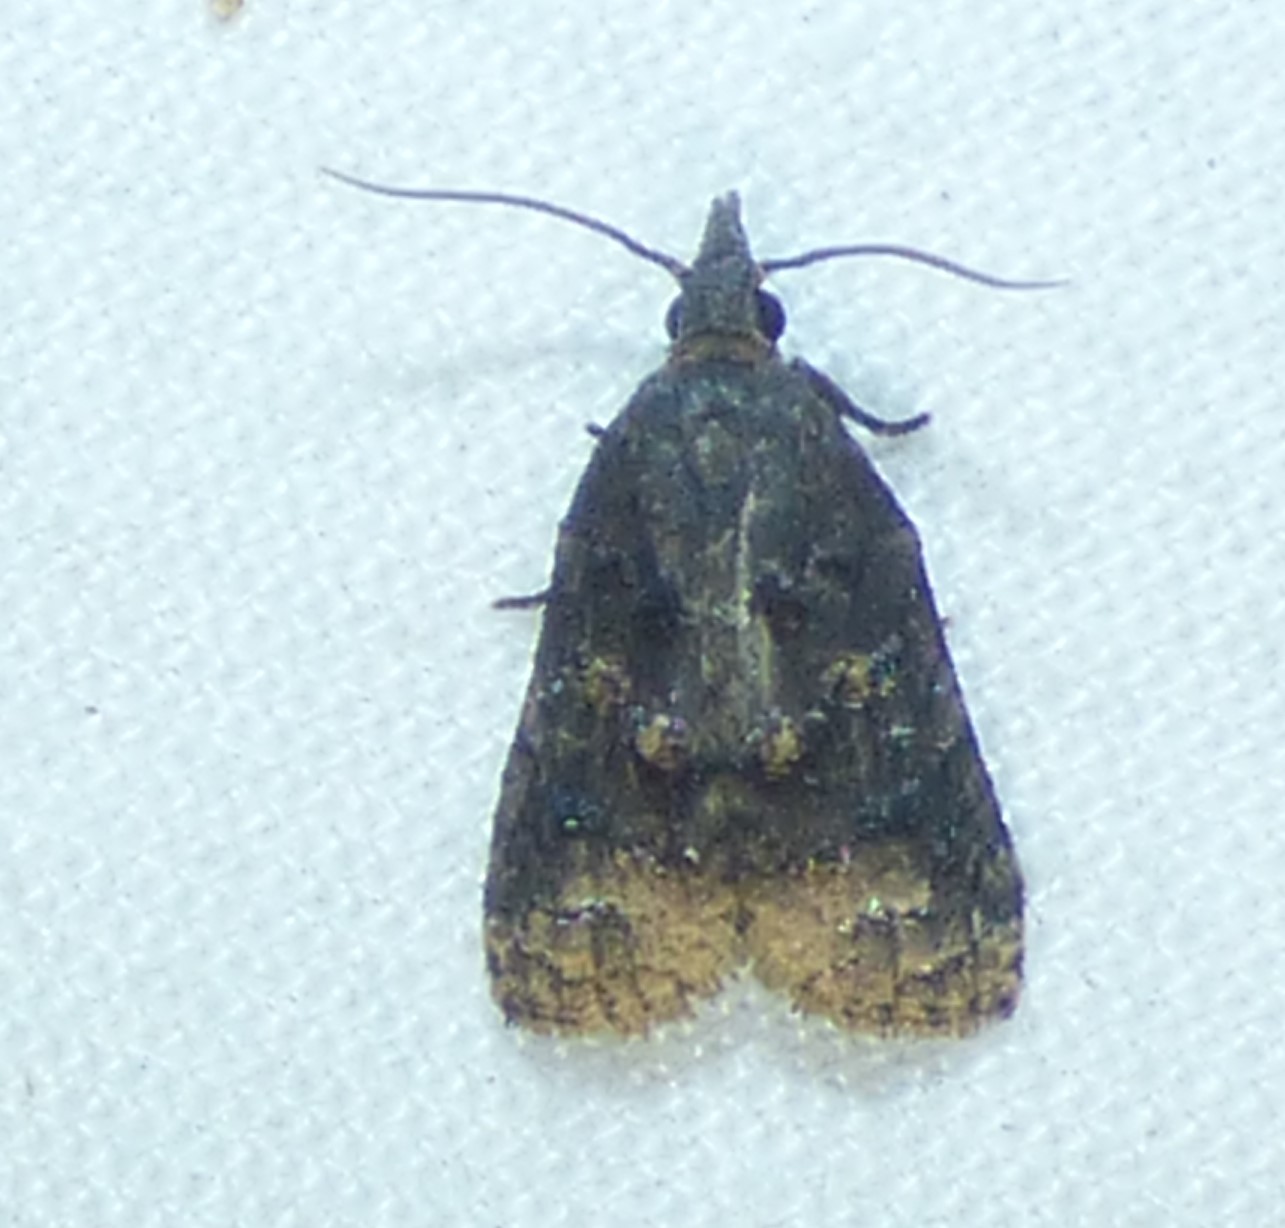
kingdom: Animalia
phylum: Arthropoda
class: Insecta
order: Lepidoptera
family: Tortricidae
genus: Platynota
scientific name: Platynota semiustana
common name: Singed platynota
